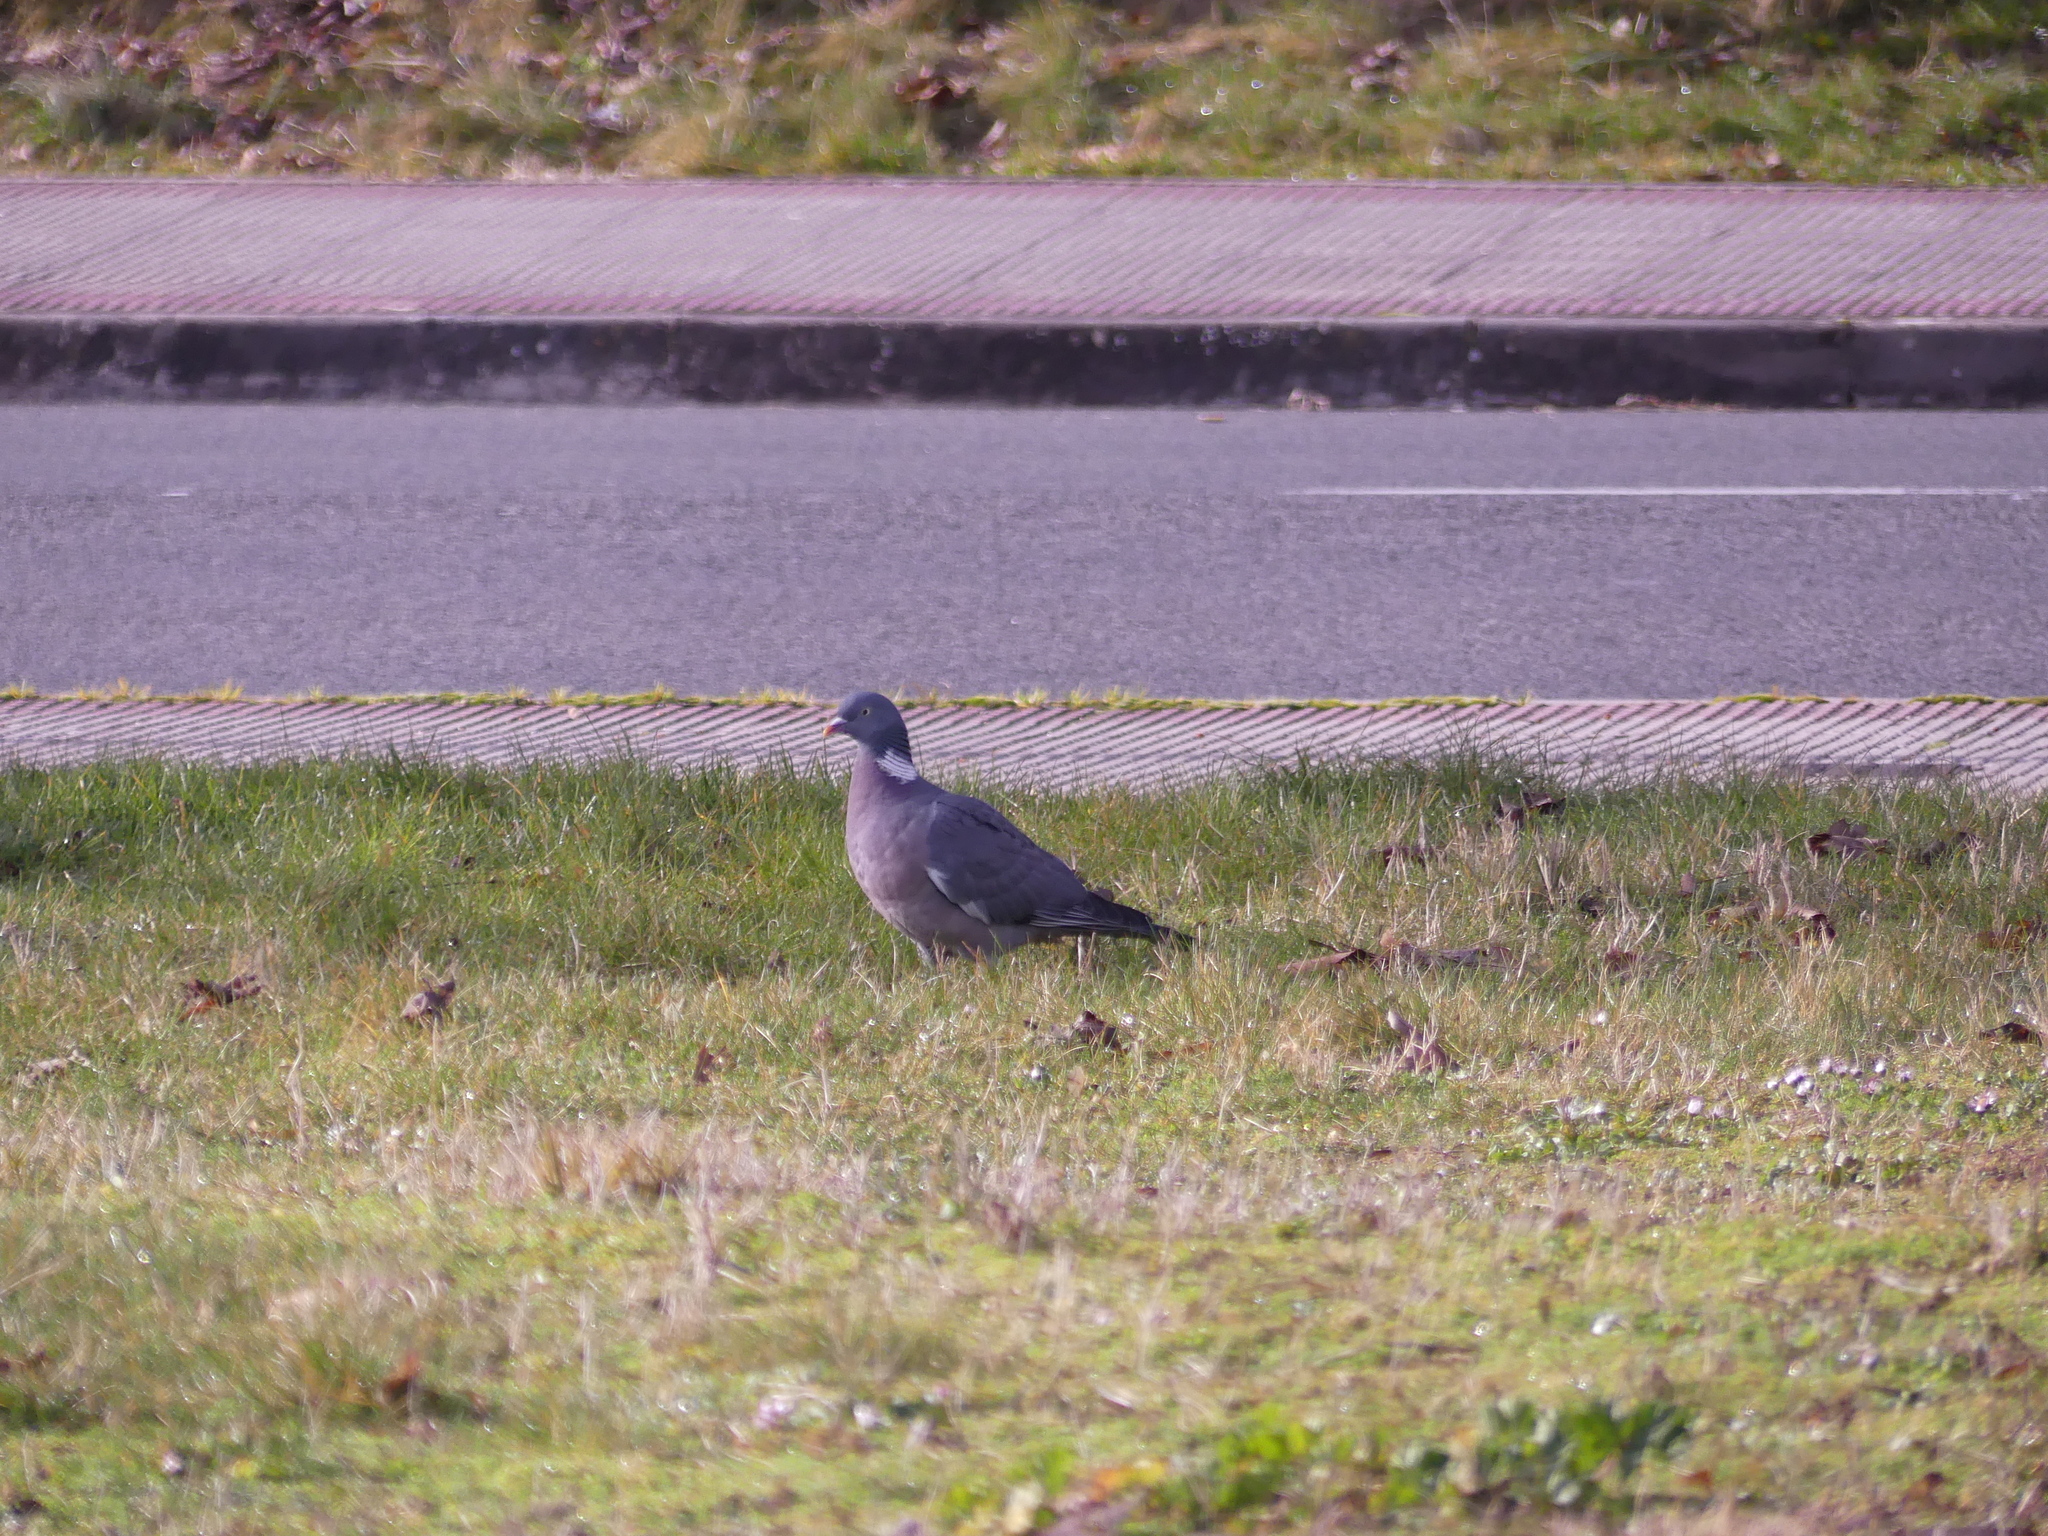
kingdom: Animalia
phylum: Chordata
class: Aves
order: Columbiformes
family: Columbidae
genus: Columba
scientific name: Columba palumbus
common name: Common wood pigeon
